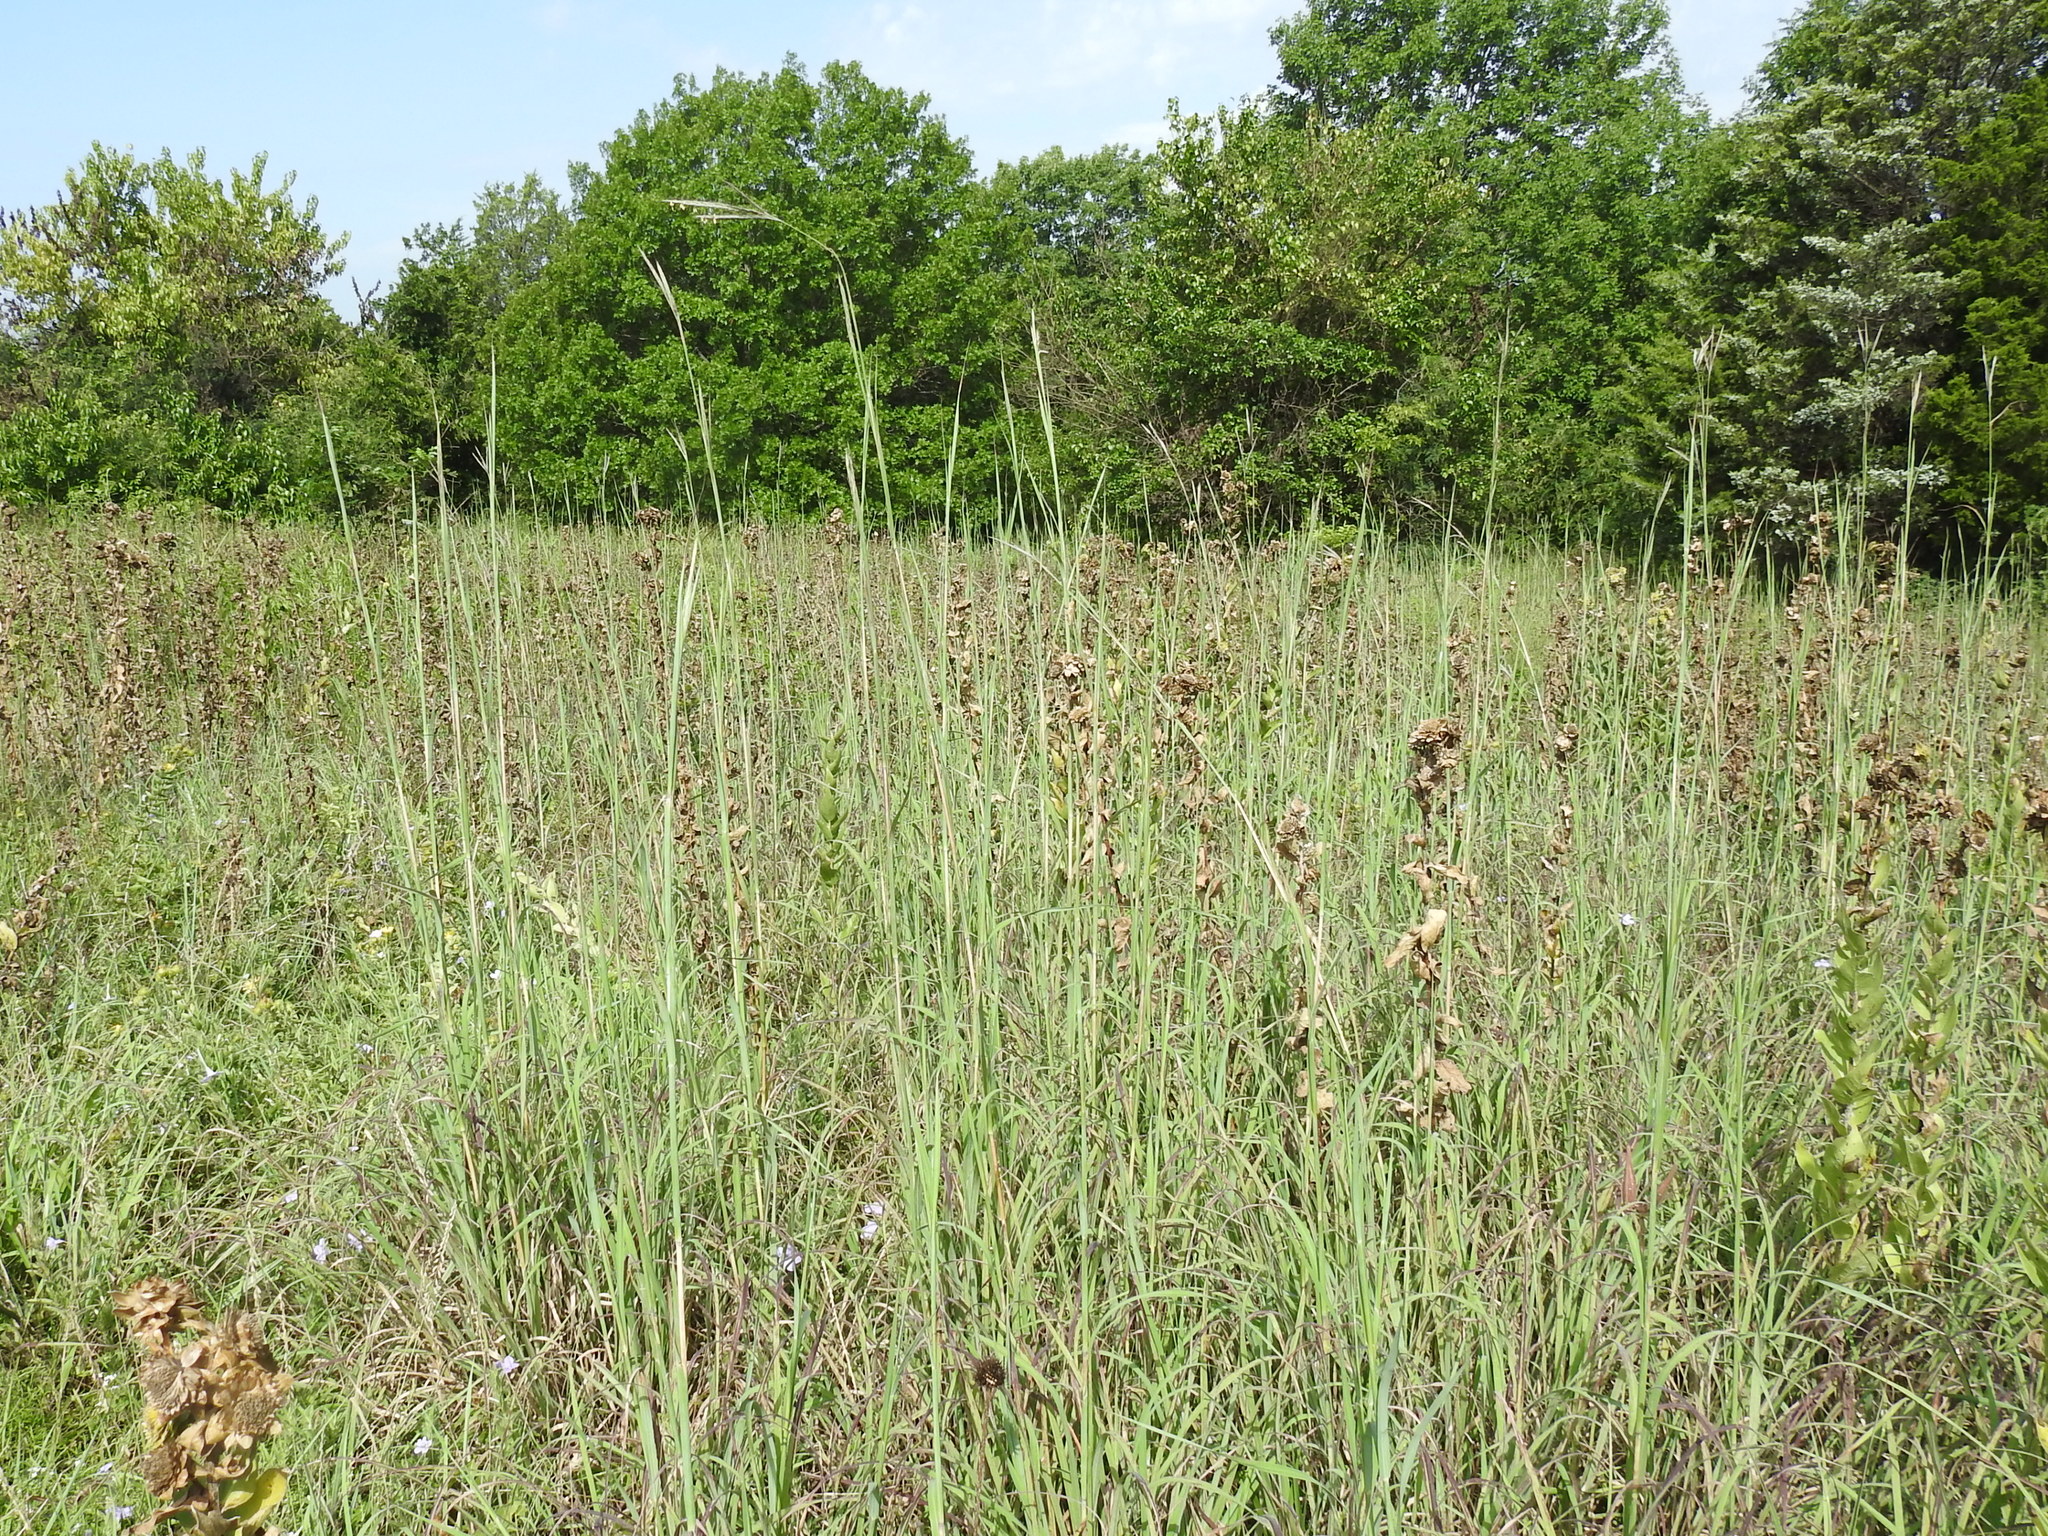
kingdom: Plantae
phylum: Tracheophyta
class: Liliopsida
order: Poales
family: Poaceae
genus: Andropogon
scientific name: Andropogon gerardi
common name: Big bluestem
